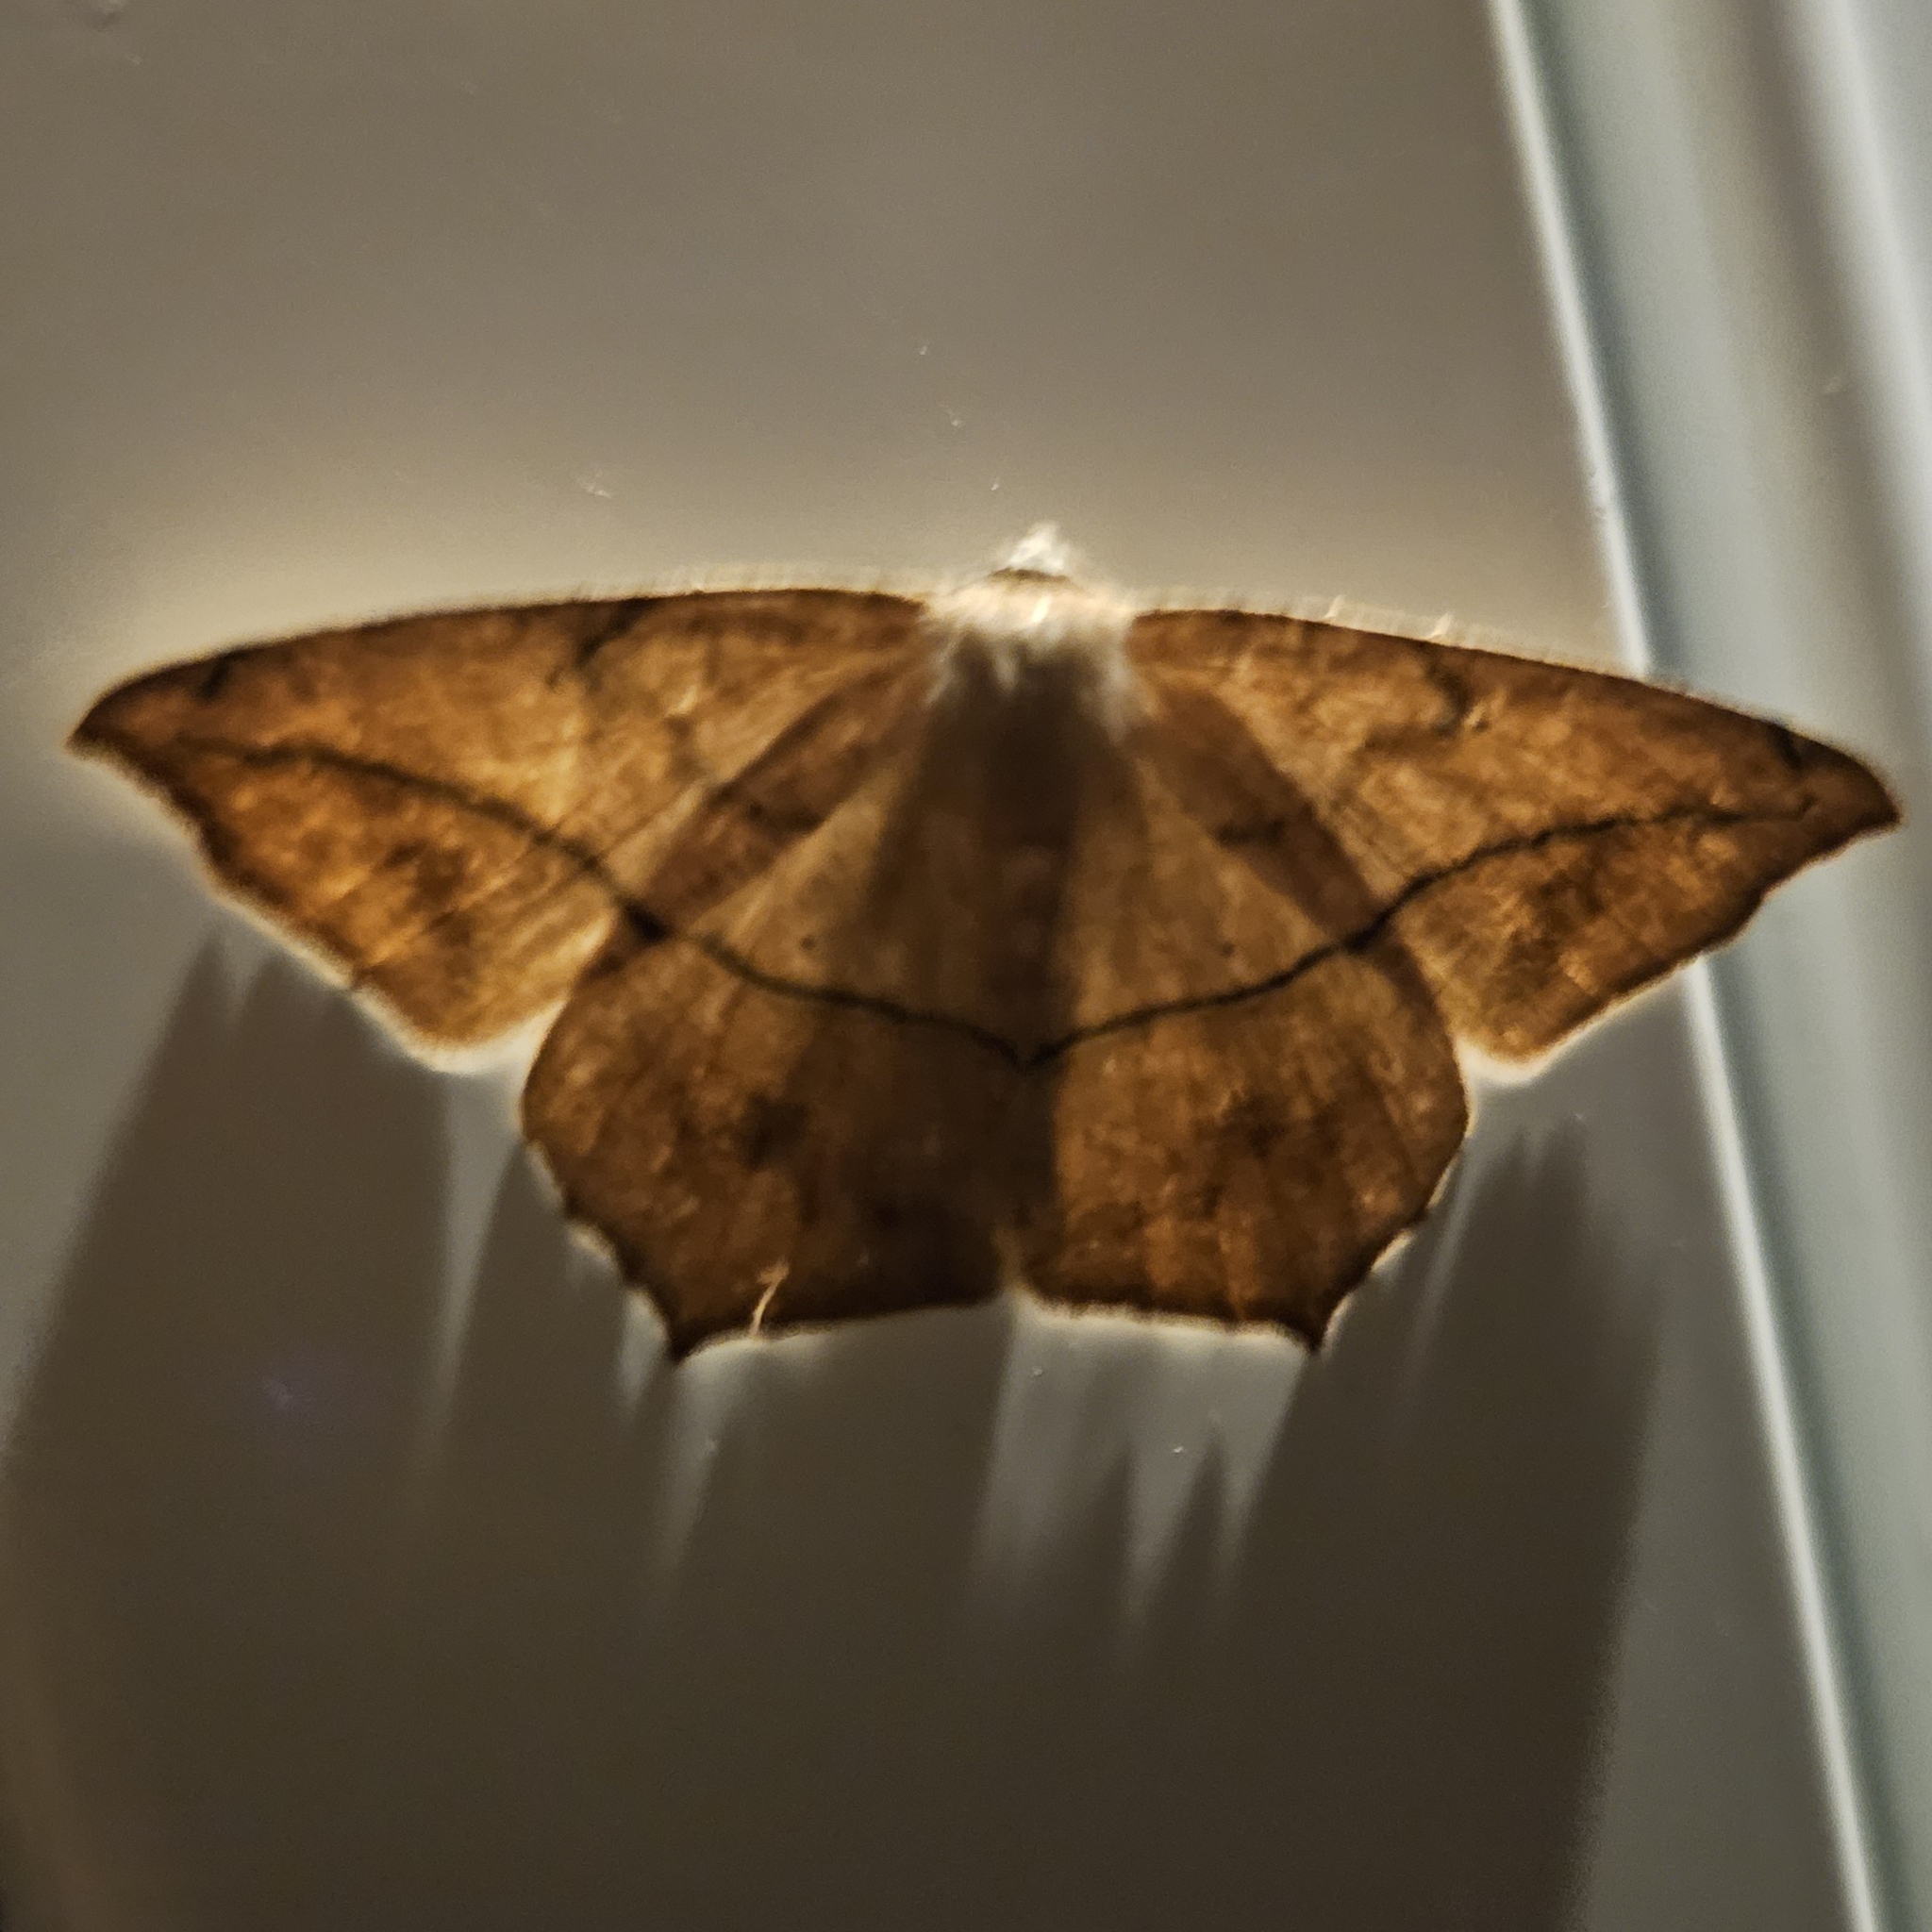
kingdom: Animalia
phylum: Arthropoda
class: Insecta
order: Lepidoptera
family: Geometridae
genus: Prochoerodes
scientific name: Prochoerodes lineola
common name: Large maple spanworm
